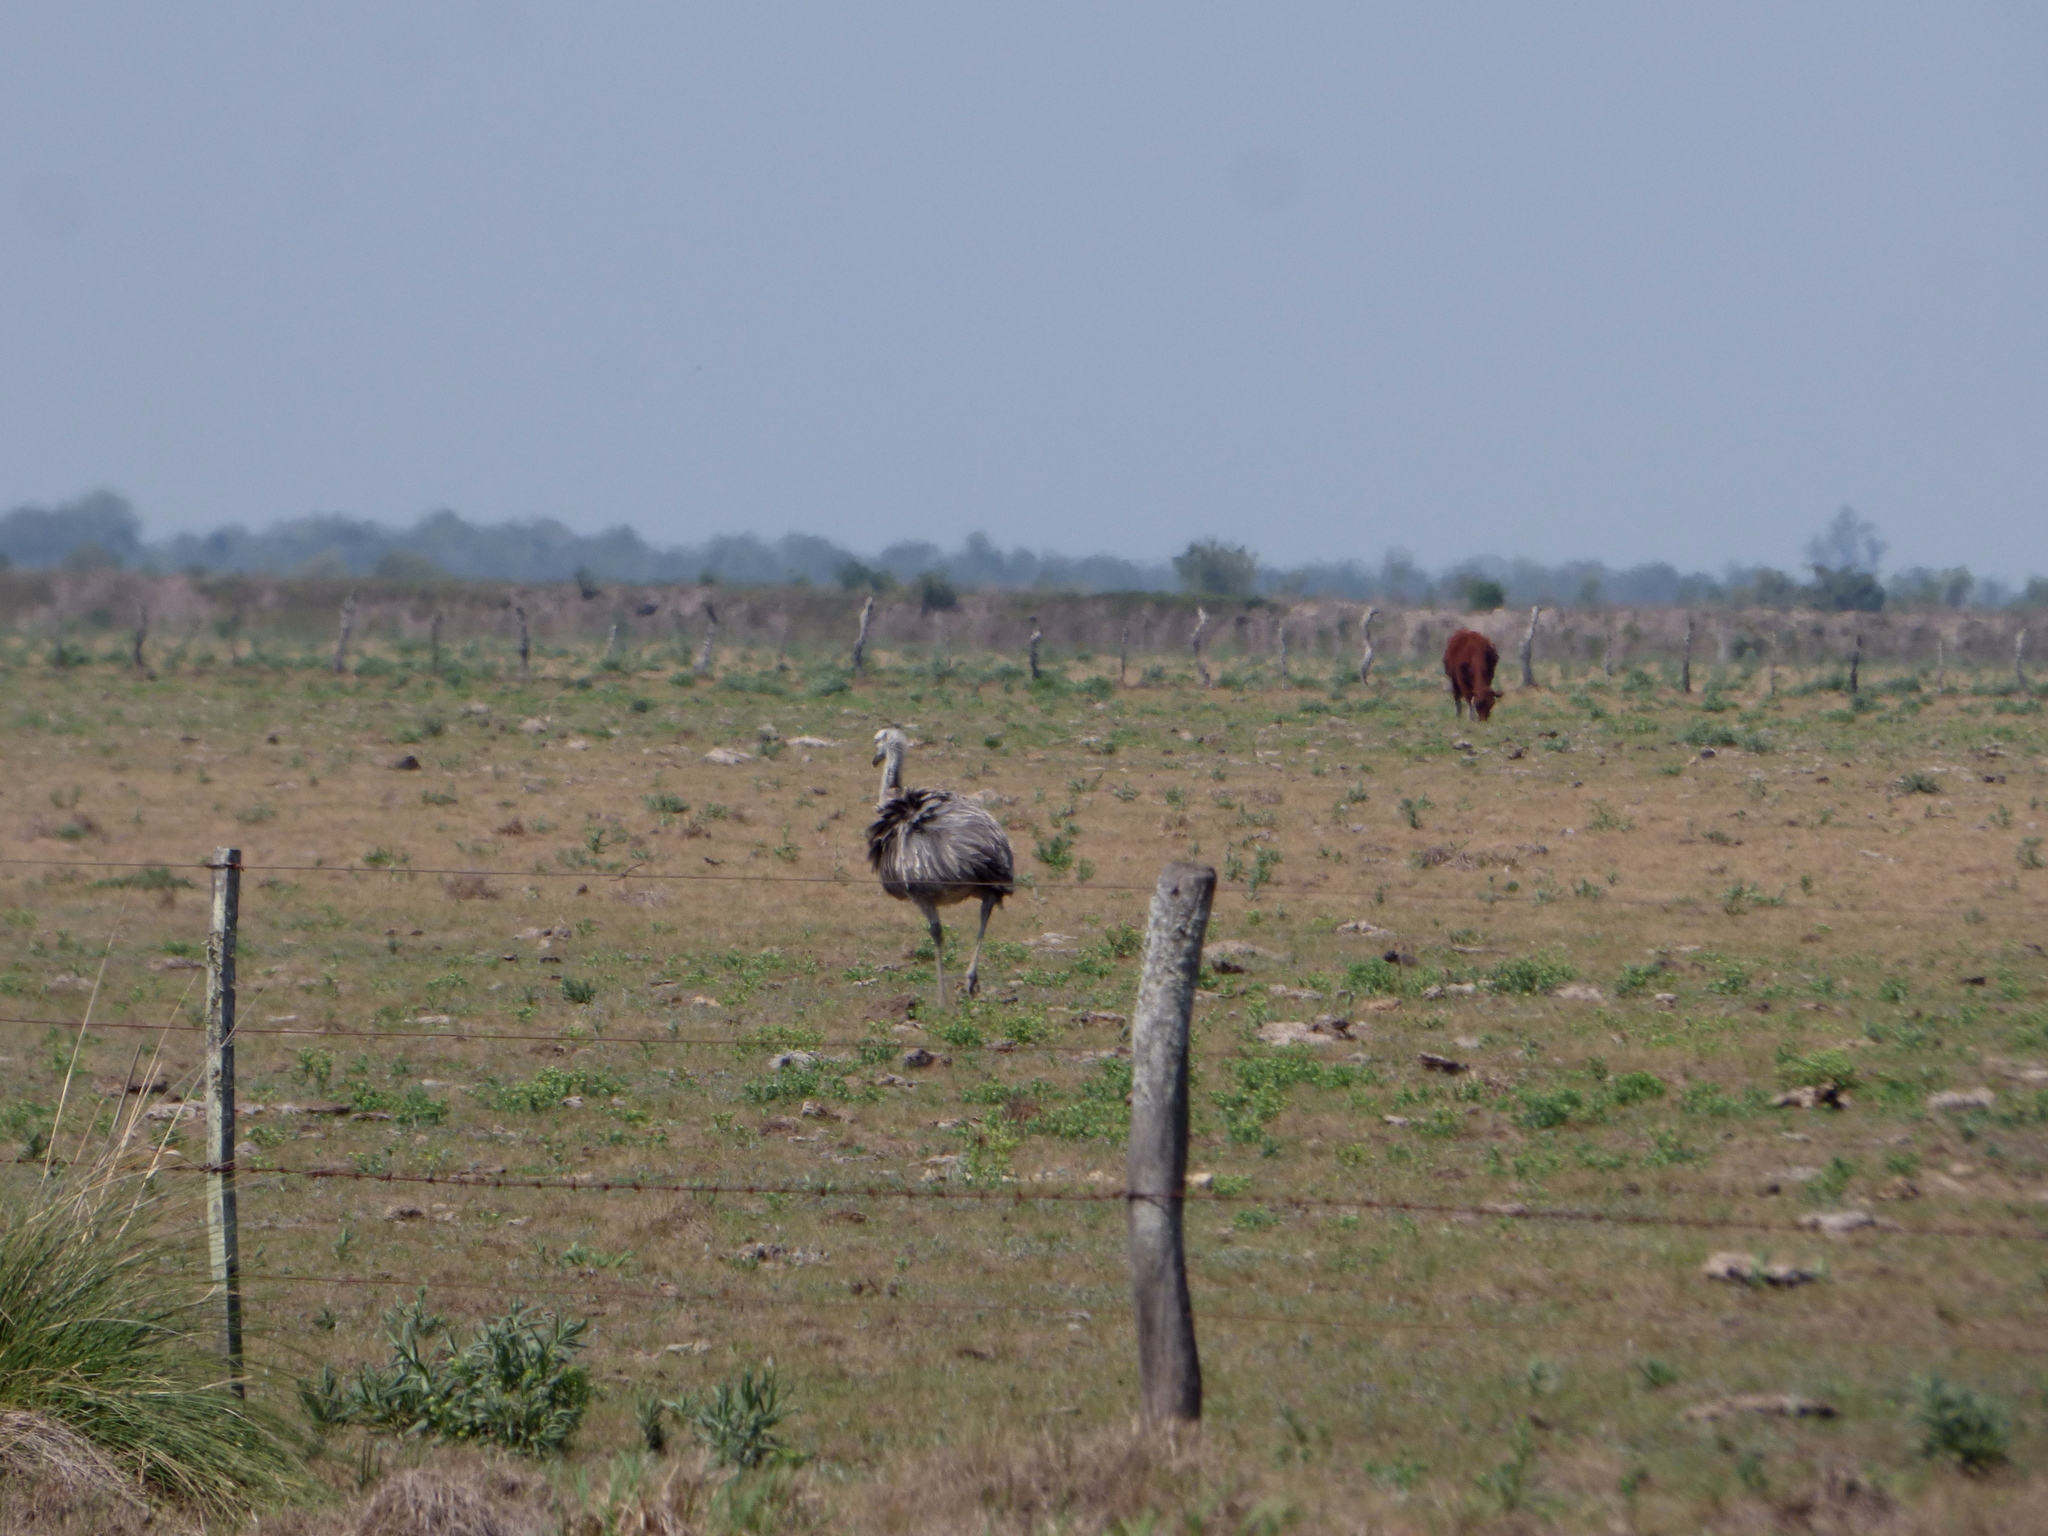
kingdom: Animalia
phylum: Chordata
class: Aves
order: Rheiformes
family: Rheidae
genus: Rhea
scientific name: Rhea americana
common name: Greater rhea
